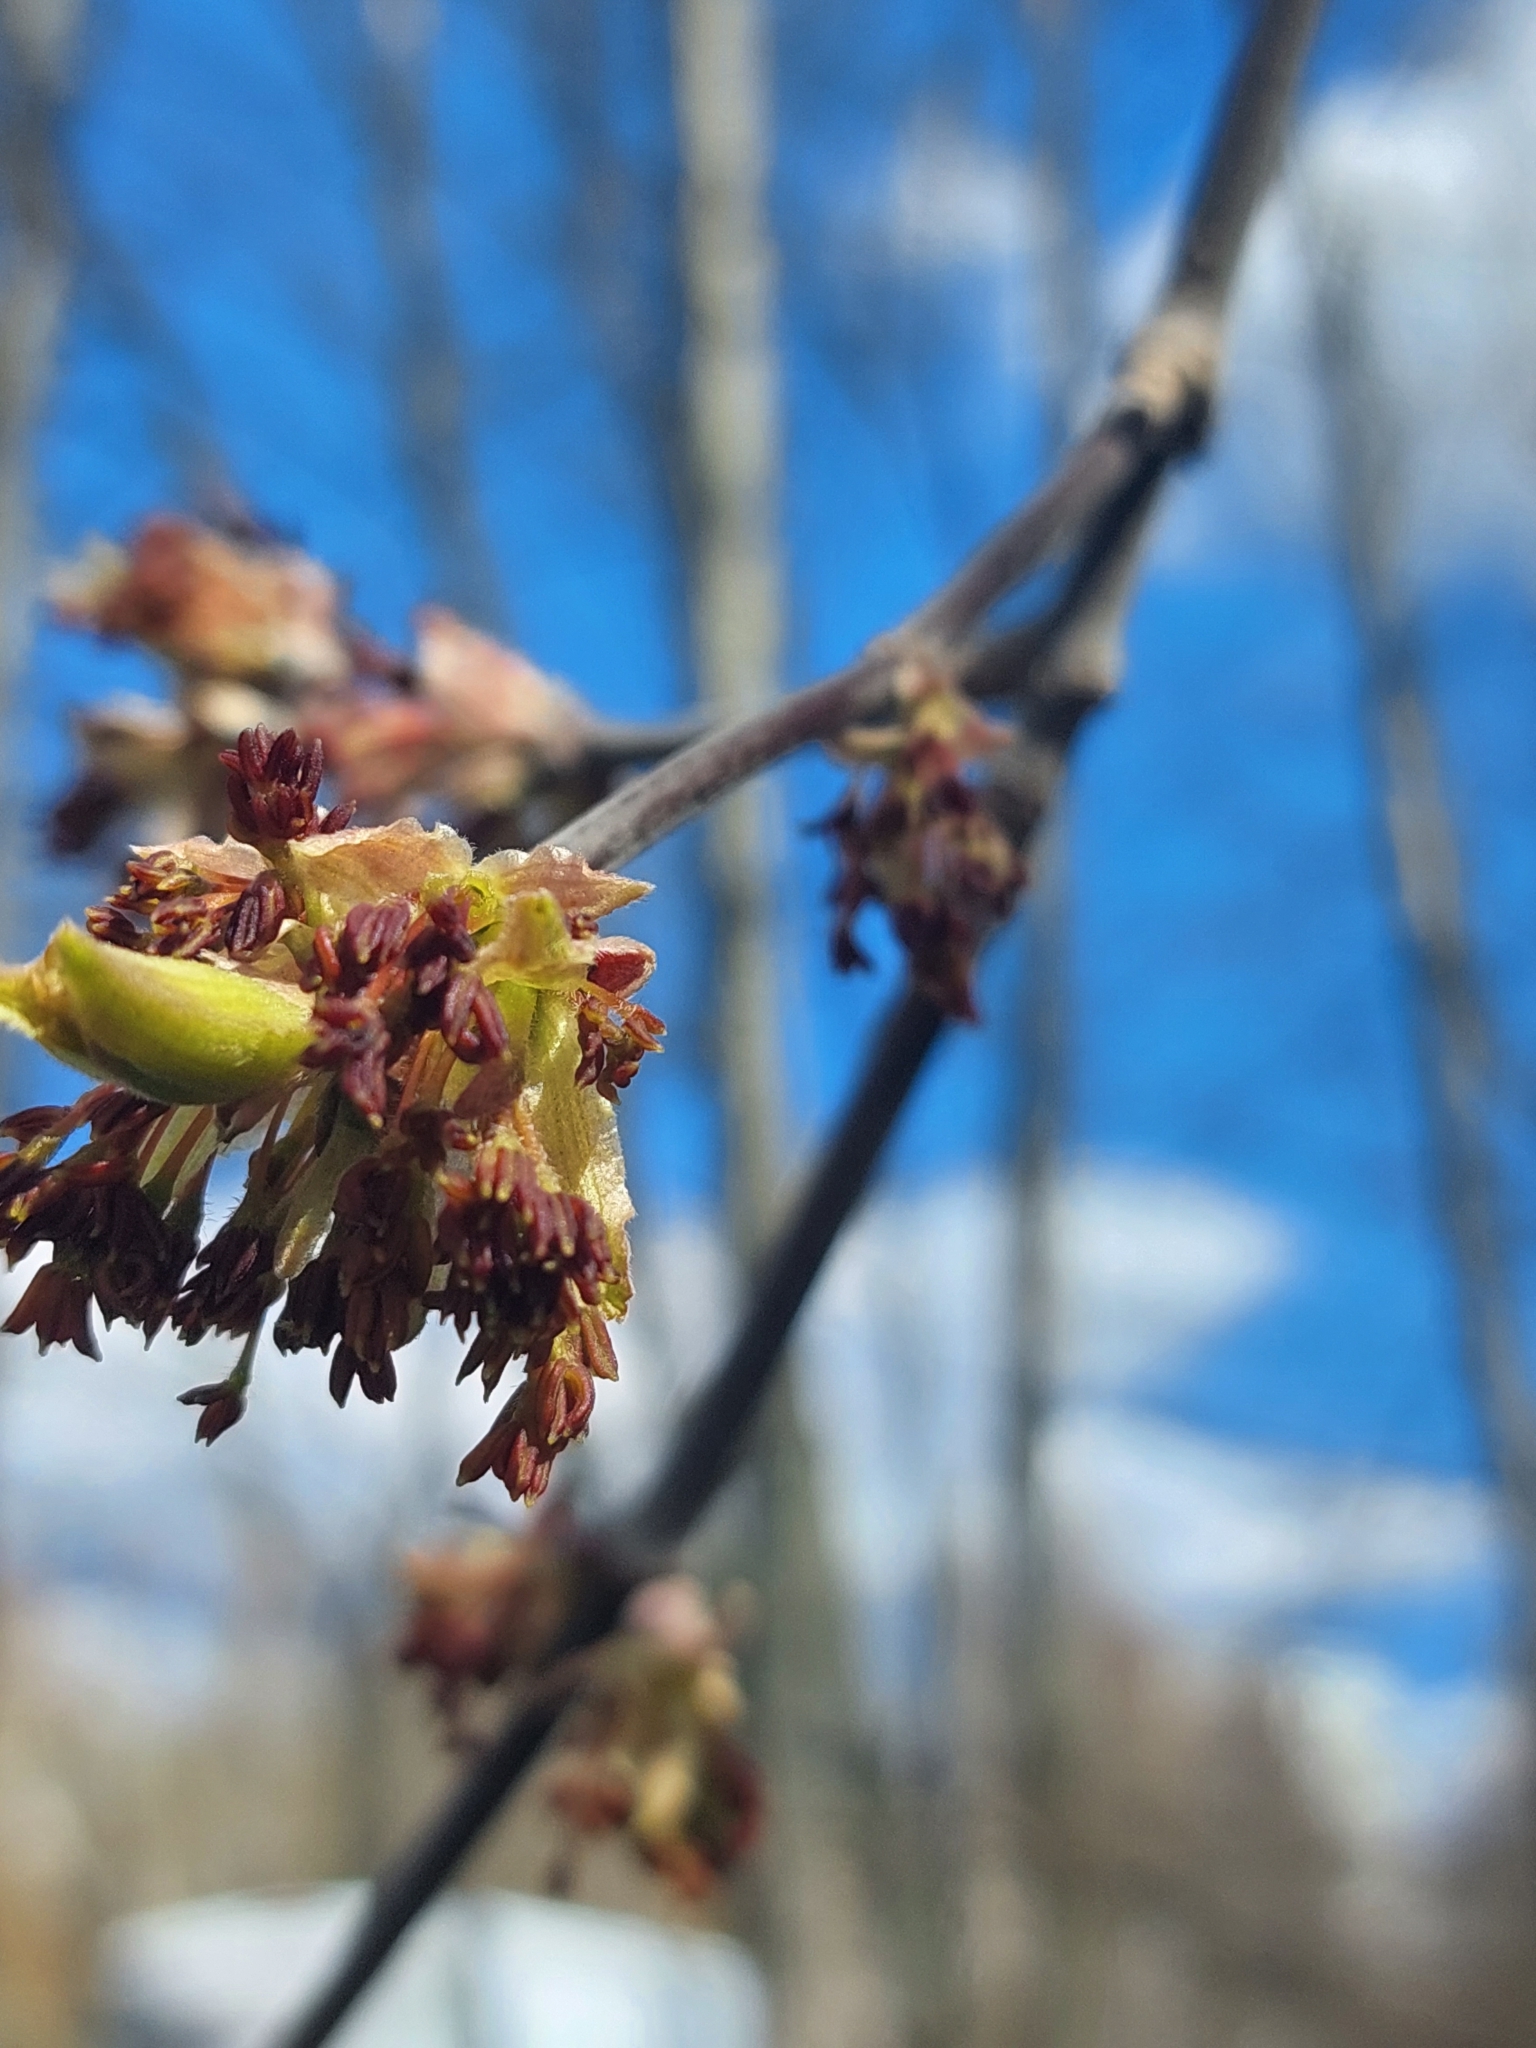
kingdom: Plantae
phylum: Tracheophyta
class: Magnoliopsida
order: Sapindales
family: Sapindaceae
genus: Acer
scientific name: Acer negundo
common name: Ashleaf maple
